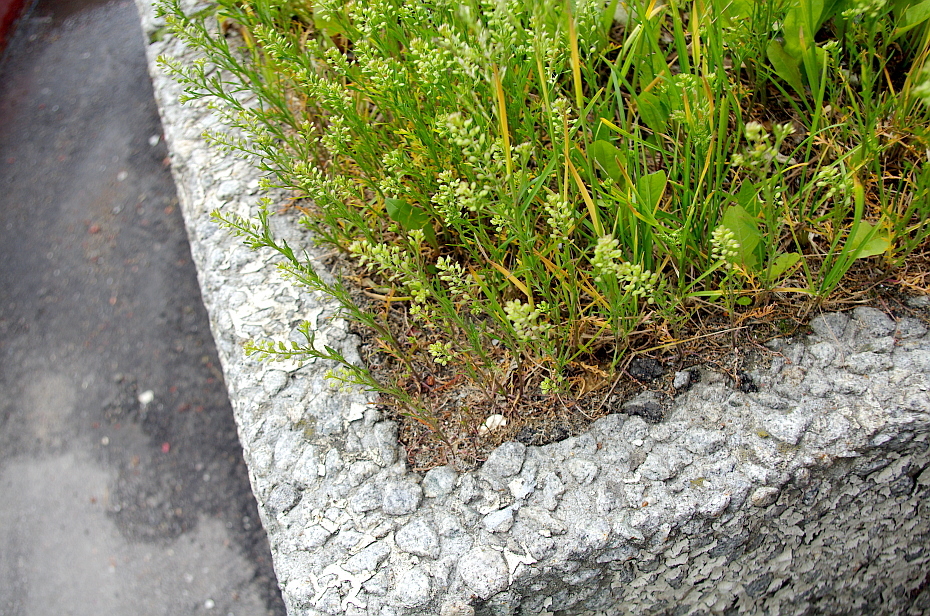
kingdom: Plantae
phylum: Tracheophyta
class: Magnoliopsida
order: Brassicales
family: Brassicaceae
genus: Lepidium
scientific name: Lepidium ruderale
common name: Narrow-leaved pepperwort
